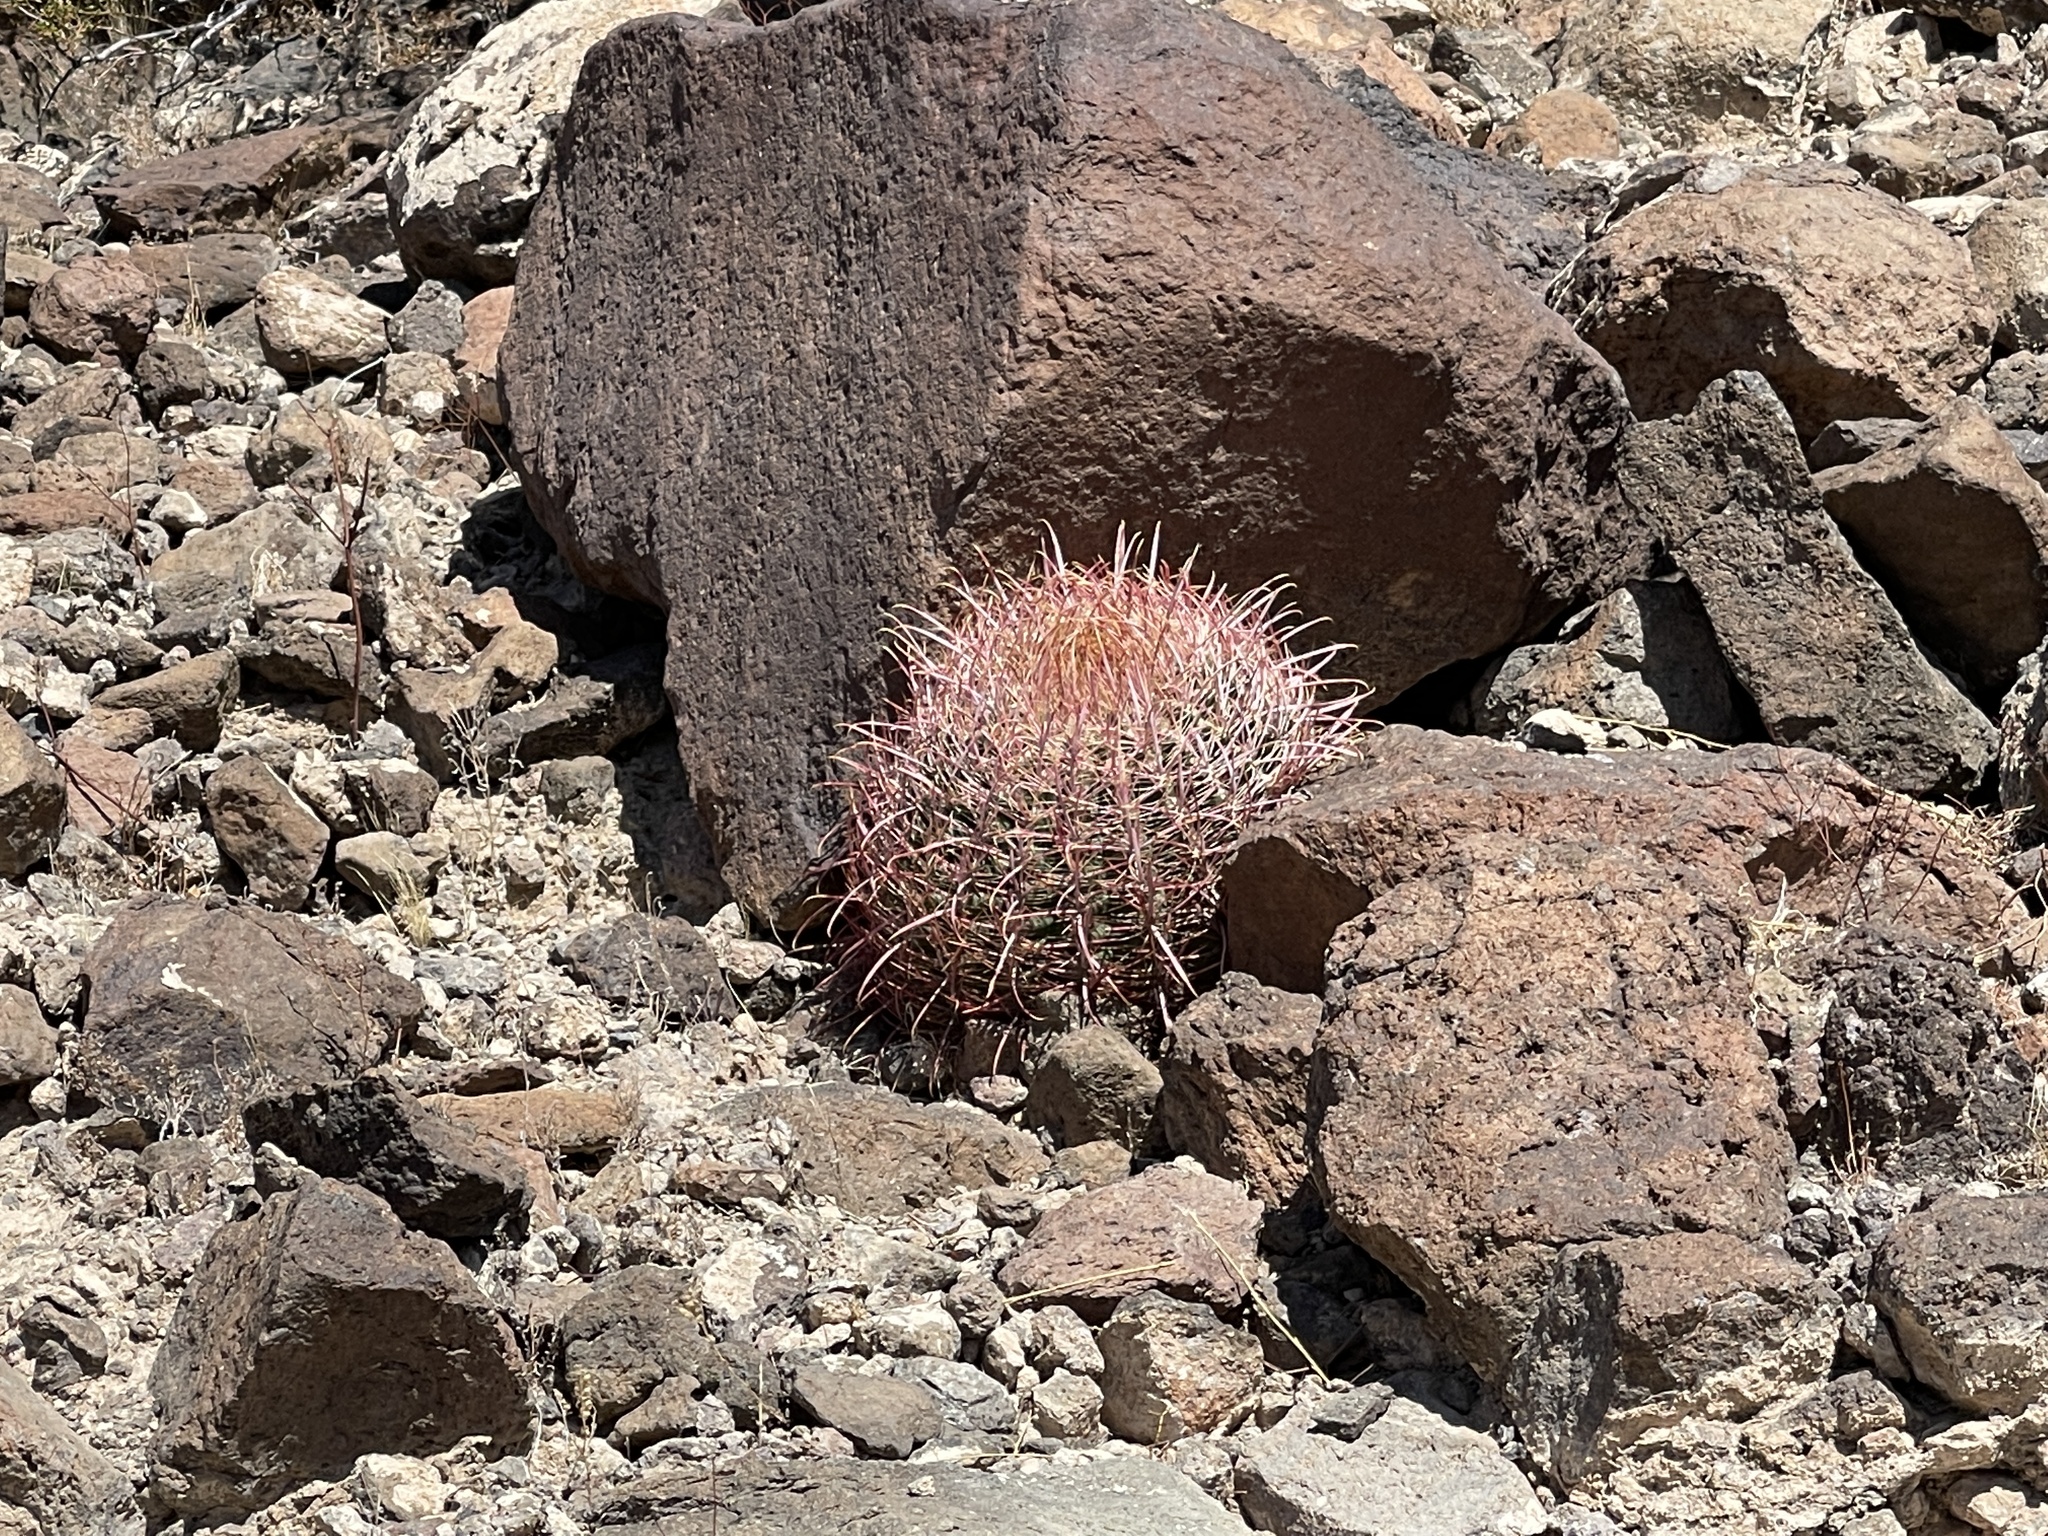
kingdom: Plantae
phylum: Tracheophyta
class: Magnoliopsida
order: Caryophyllales
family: Cactaceae
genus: Ferocactus
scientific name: Ferocactus cylindraceus
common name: California barrel cactus
